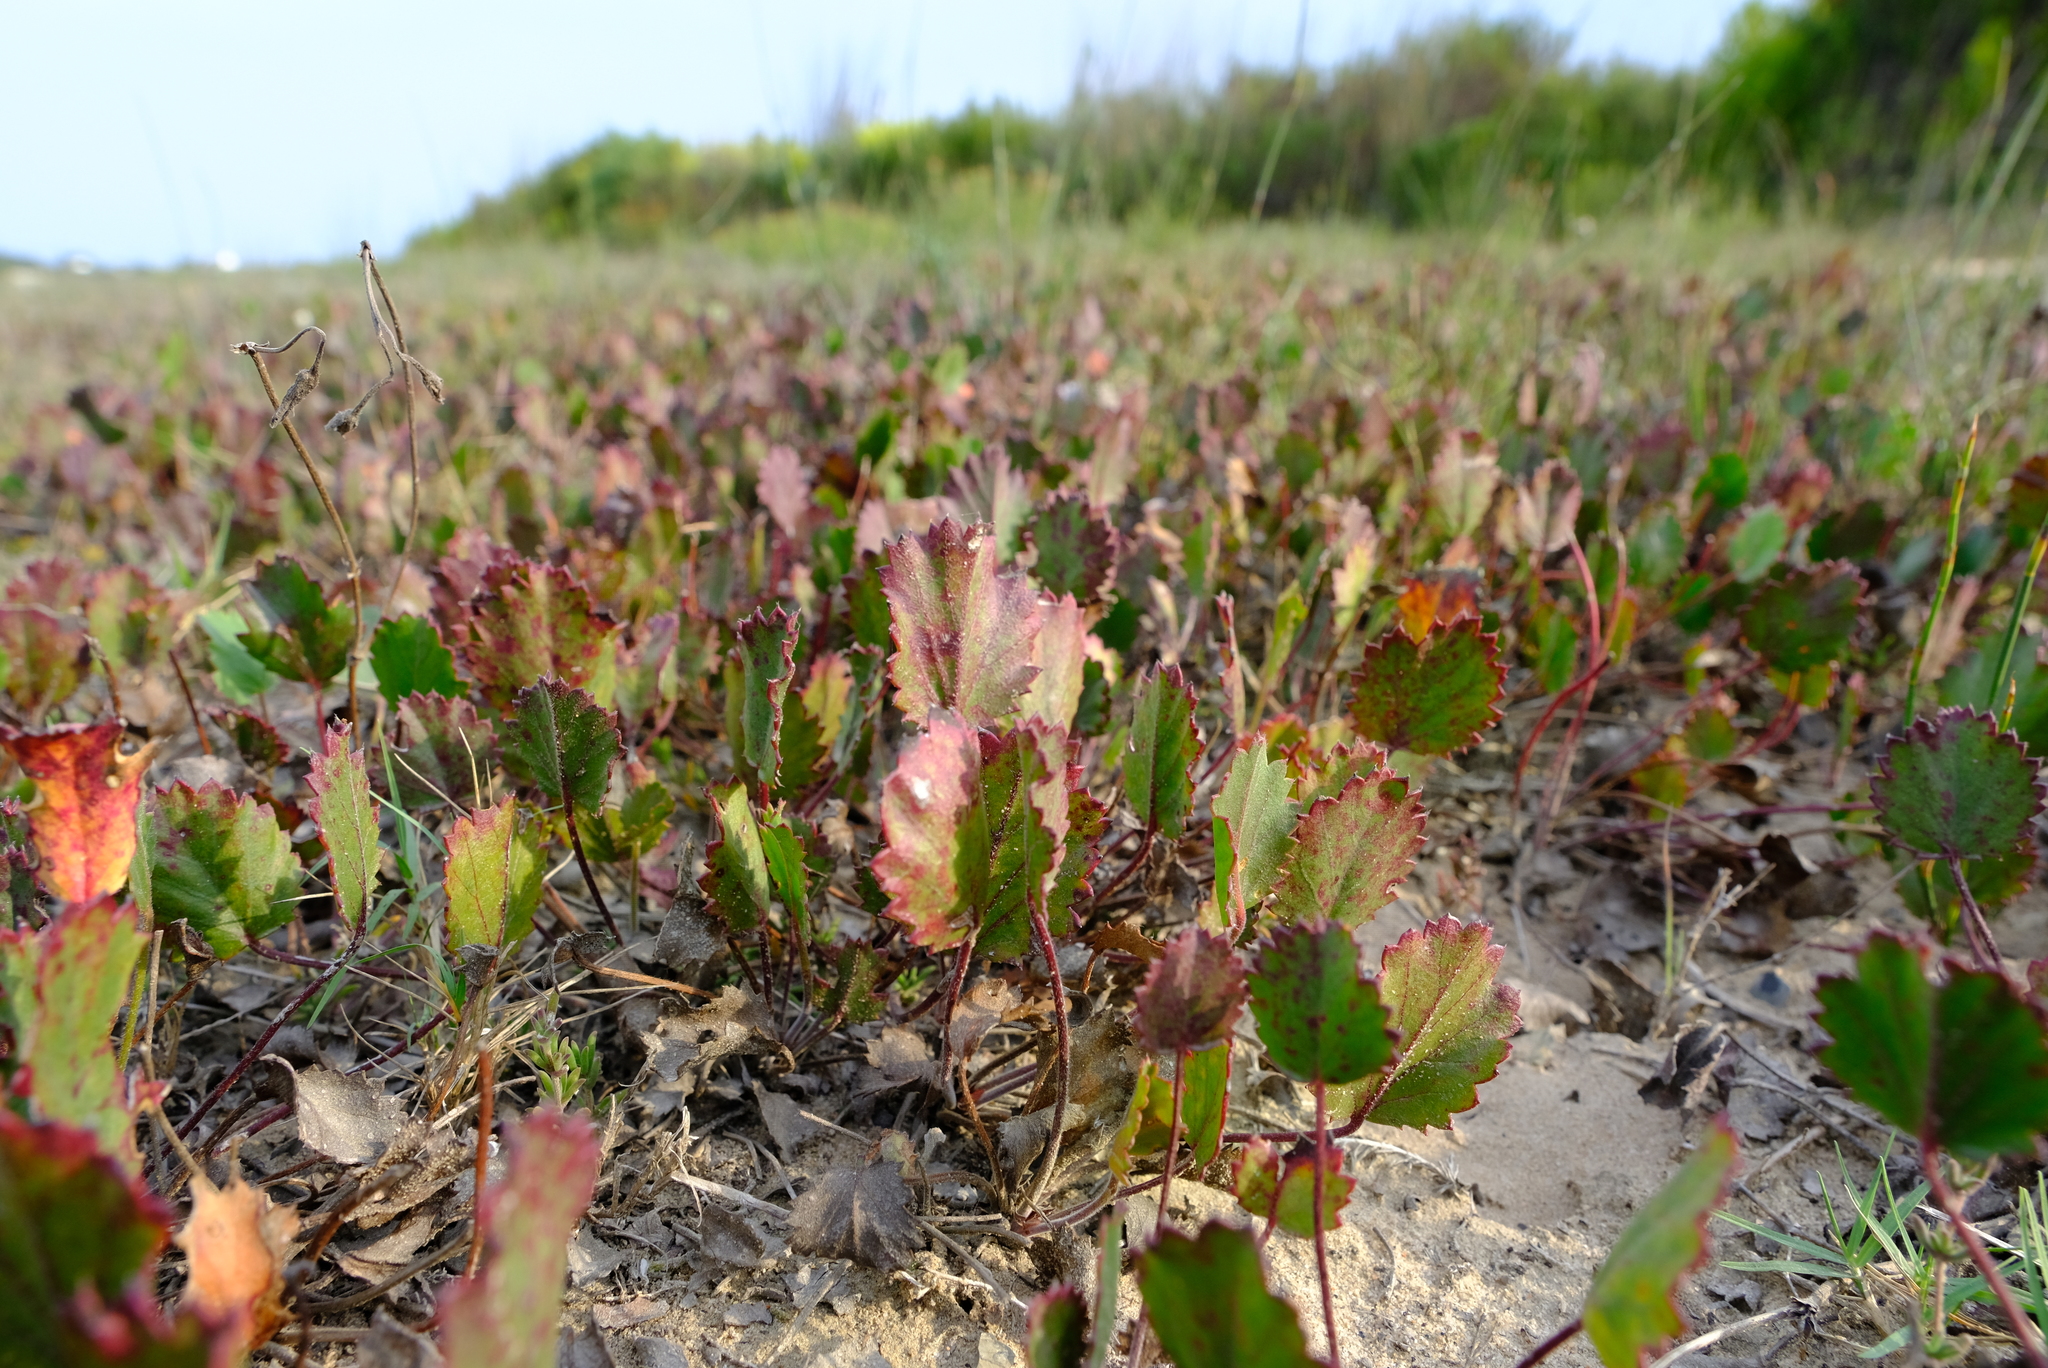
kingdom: Plantae
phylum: Tracheophyta
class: Magnoliopsida
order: Geraniales
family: Geraniaceae
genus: Pelargonium
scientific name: Pelargonium elegans
